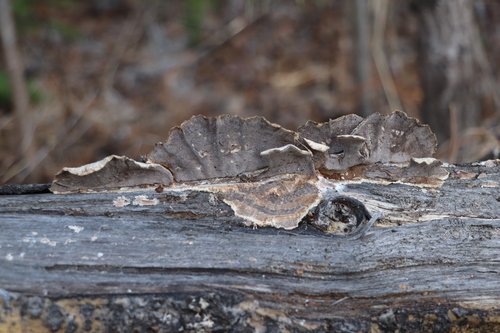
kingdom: Fungi
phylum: Basidiomycota
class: Agaricomycetes
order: Polyporales
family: Phanerochaetaceae
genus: Bjerkandera
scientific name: Bjerkandera adusta
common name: Smoky bracket
